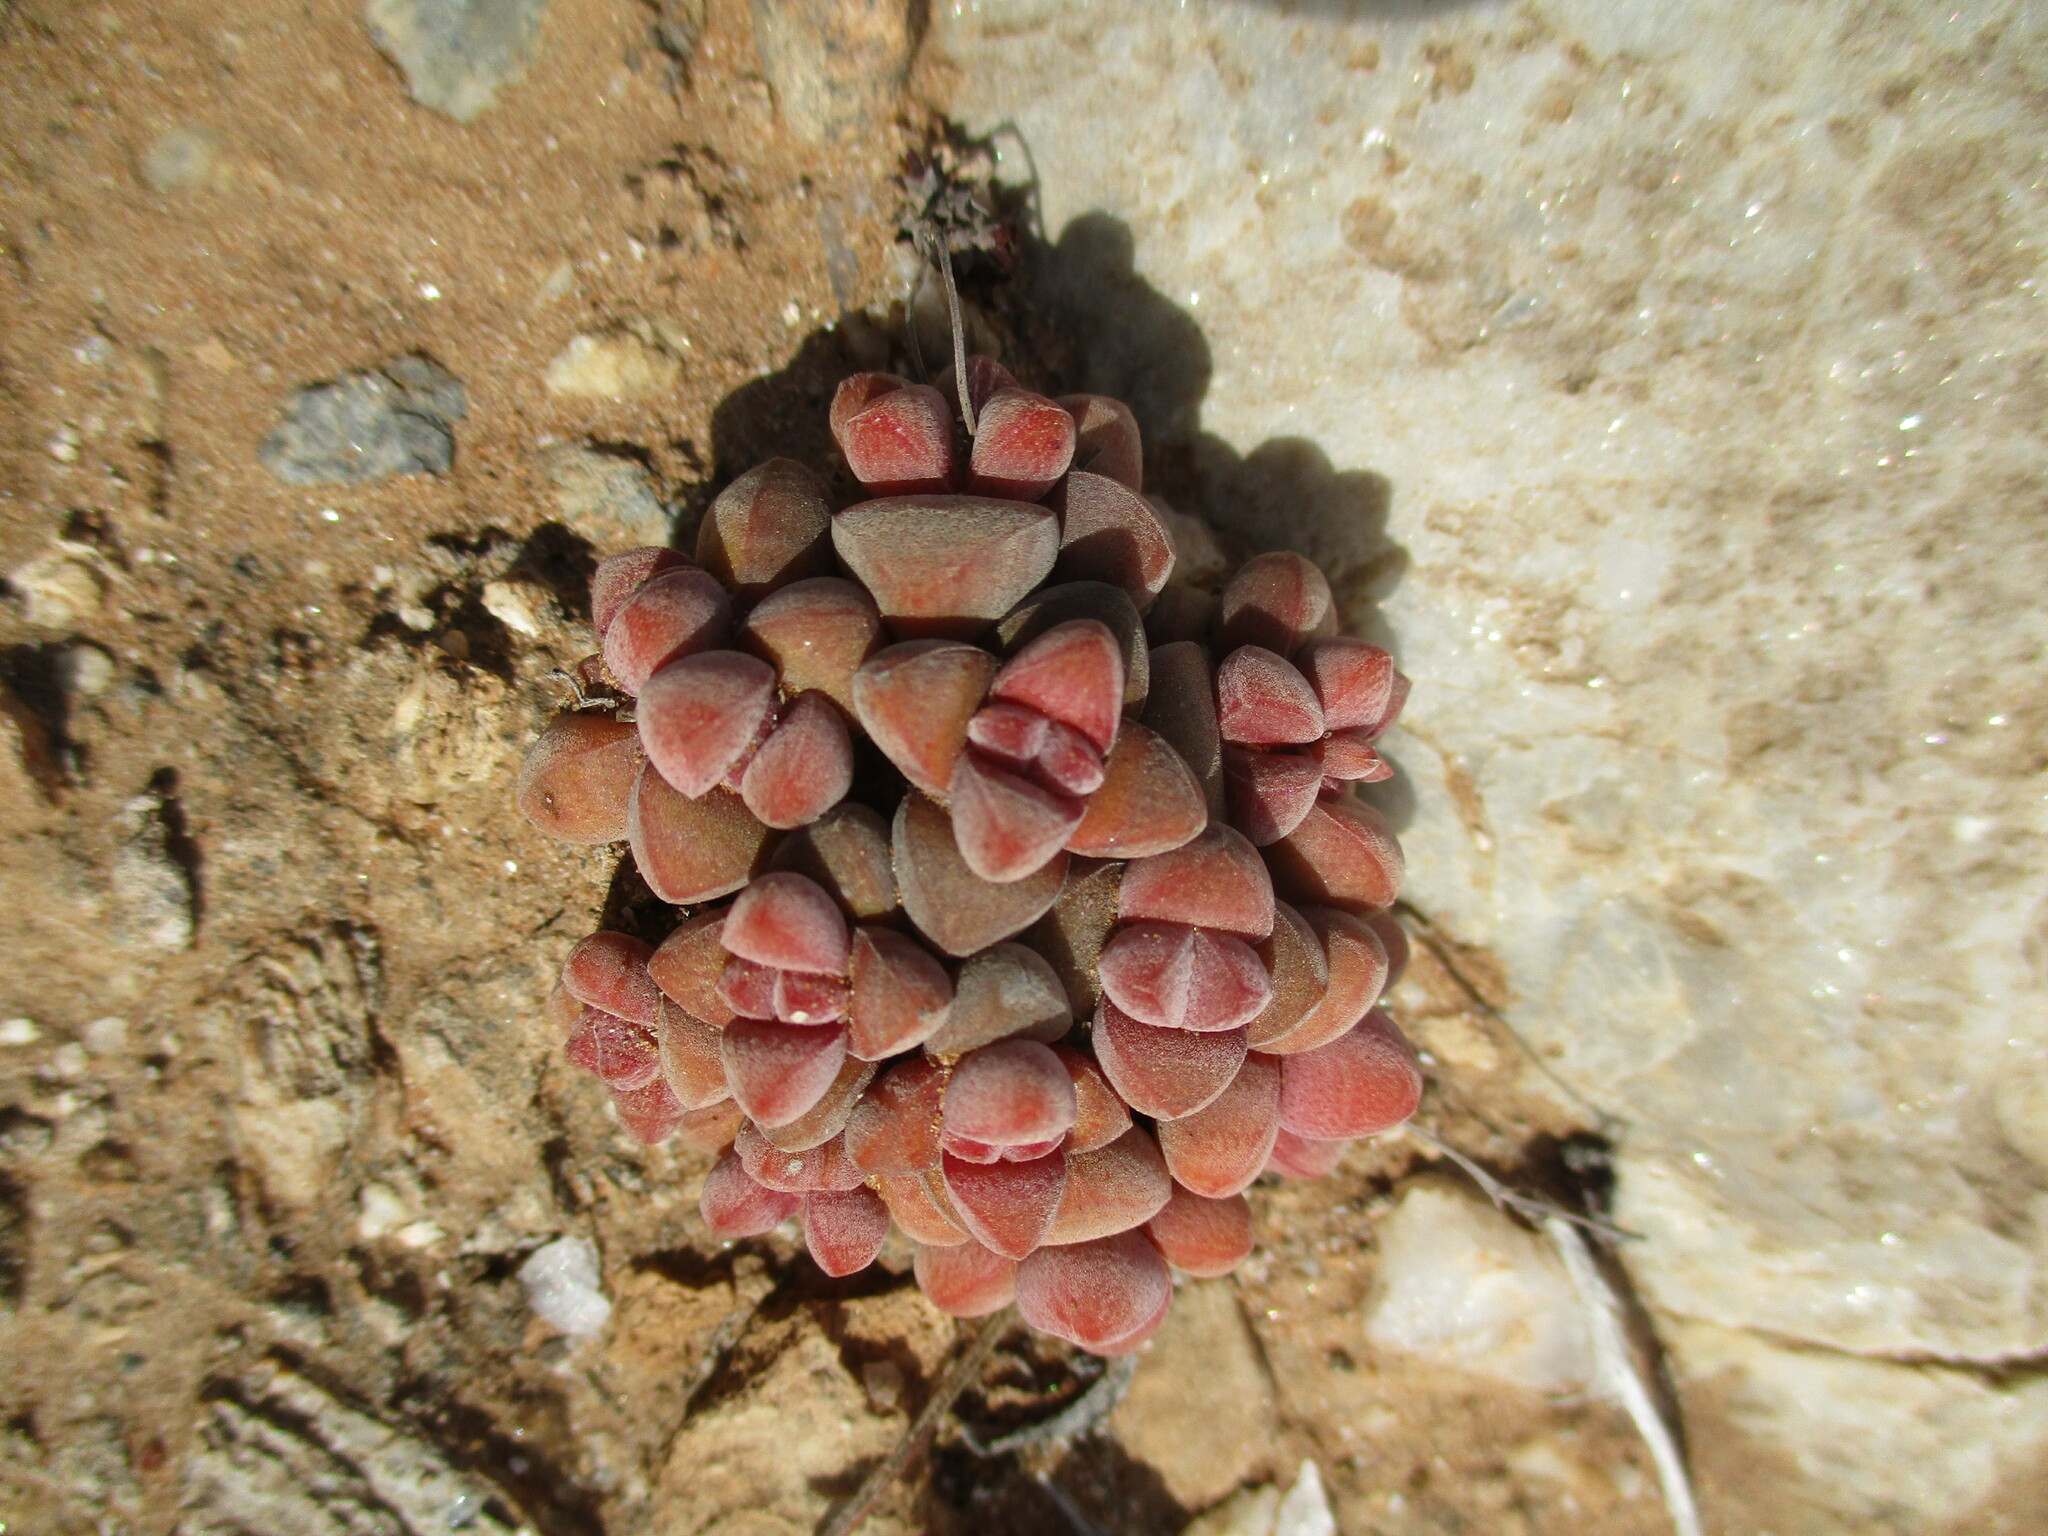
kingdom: Plantae
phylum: Tracheophyta
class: Magnoliopsida
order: Saxifragales
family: Crassulaceae
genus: Crassula
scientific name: Crassula elegans
